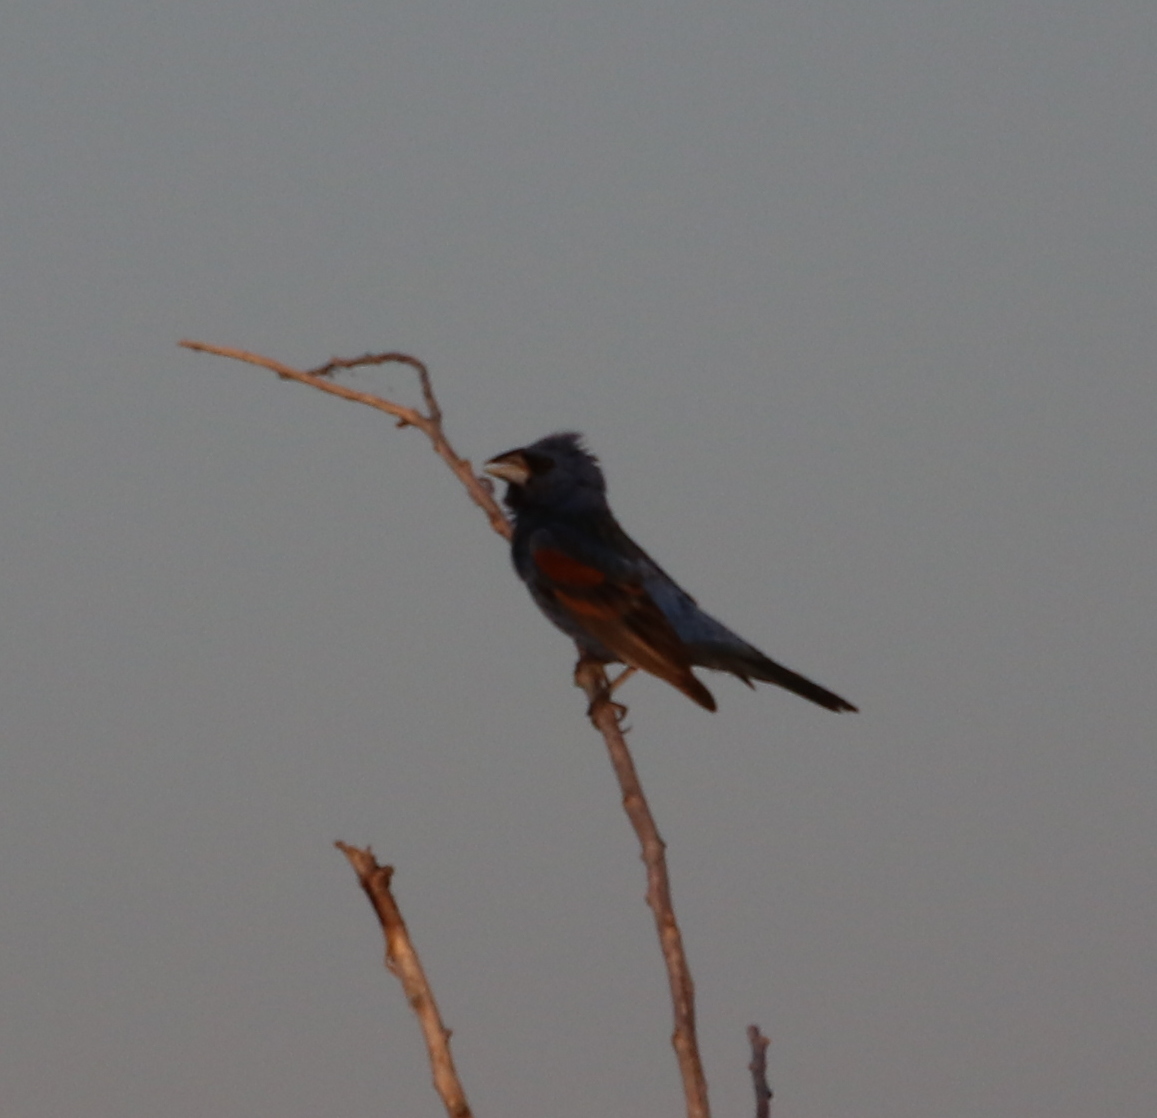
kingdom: Animalia
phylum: Chordata
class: Aves
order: Passeriformes
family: Cardinalidae
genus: Passerina
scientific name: Passerina caerulea
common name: Blue grosbeak
